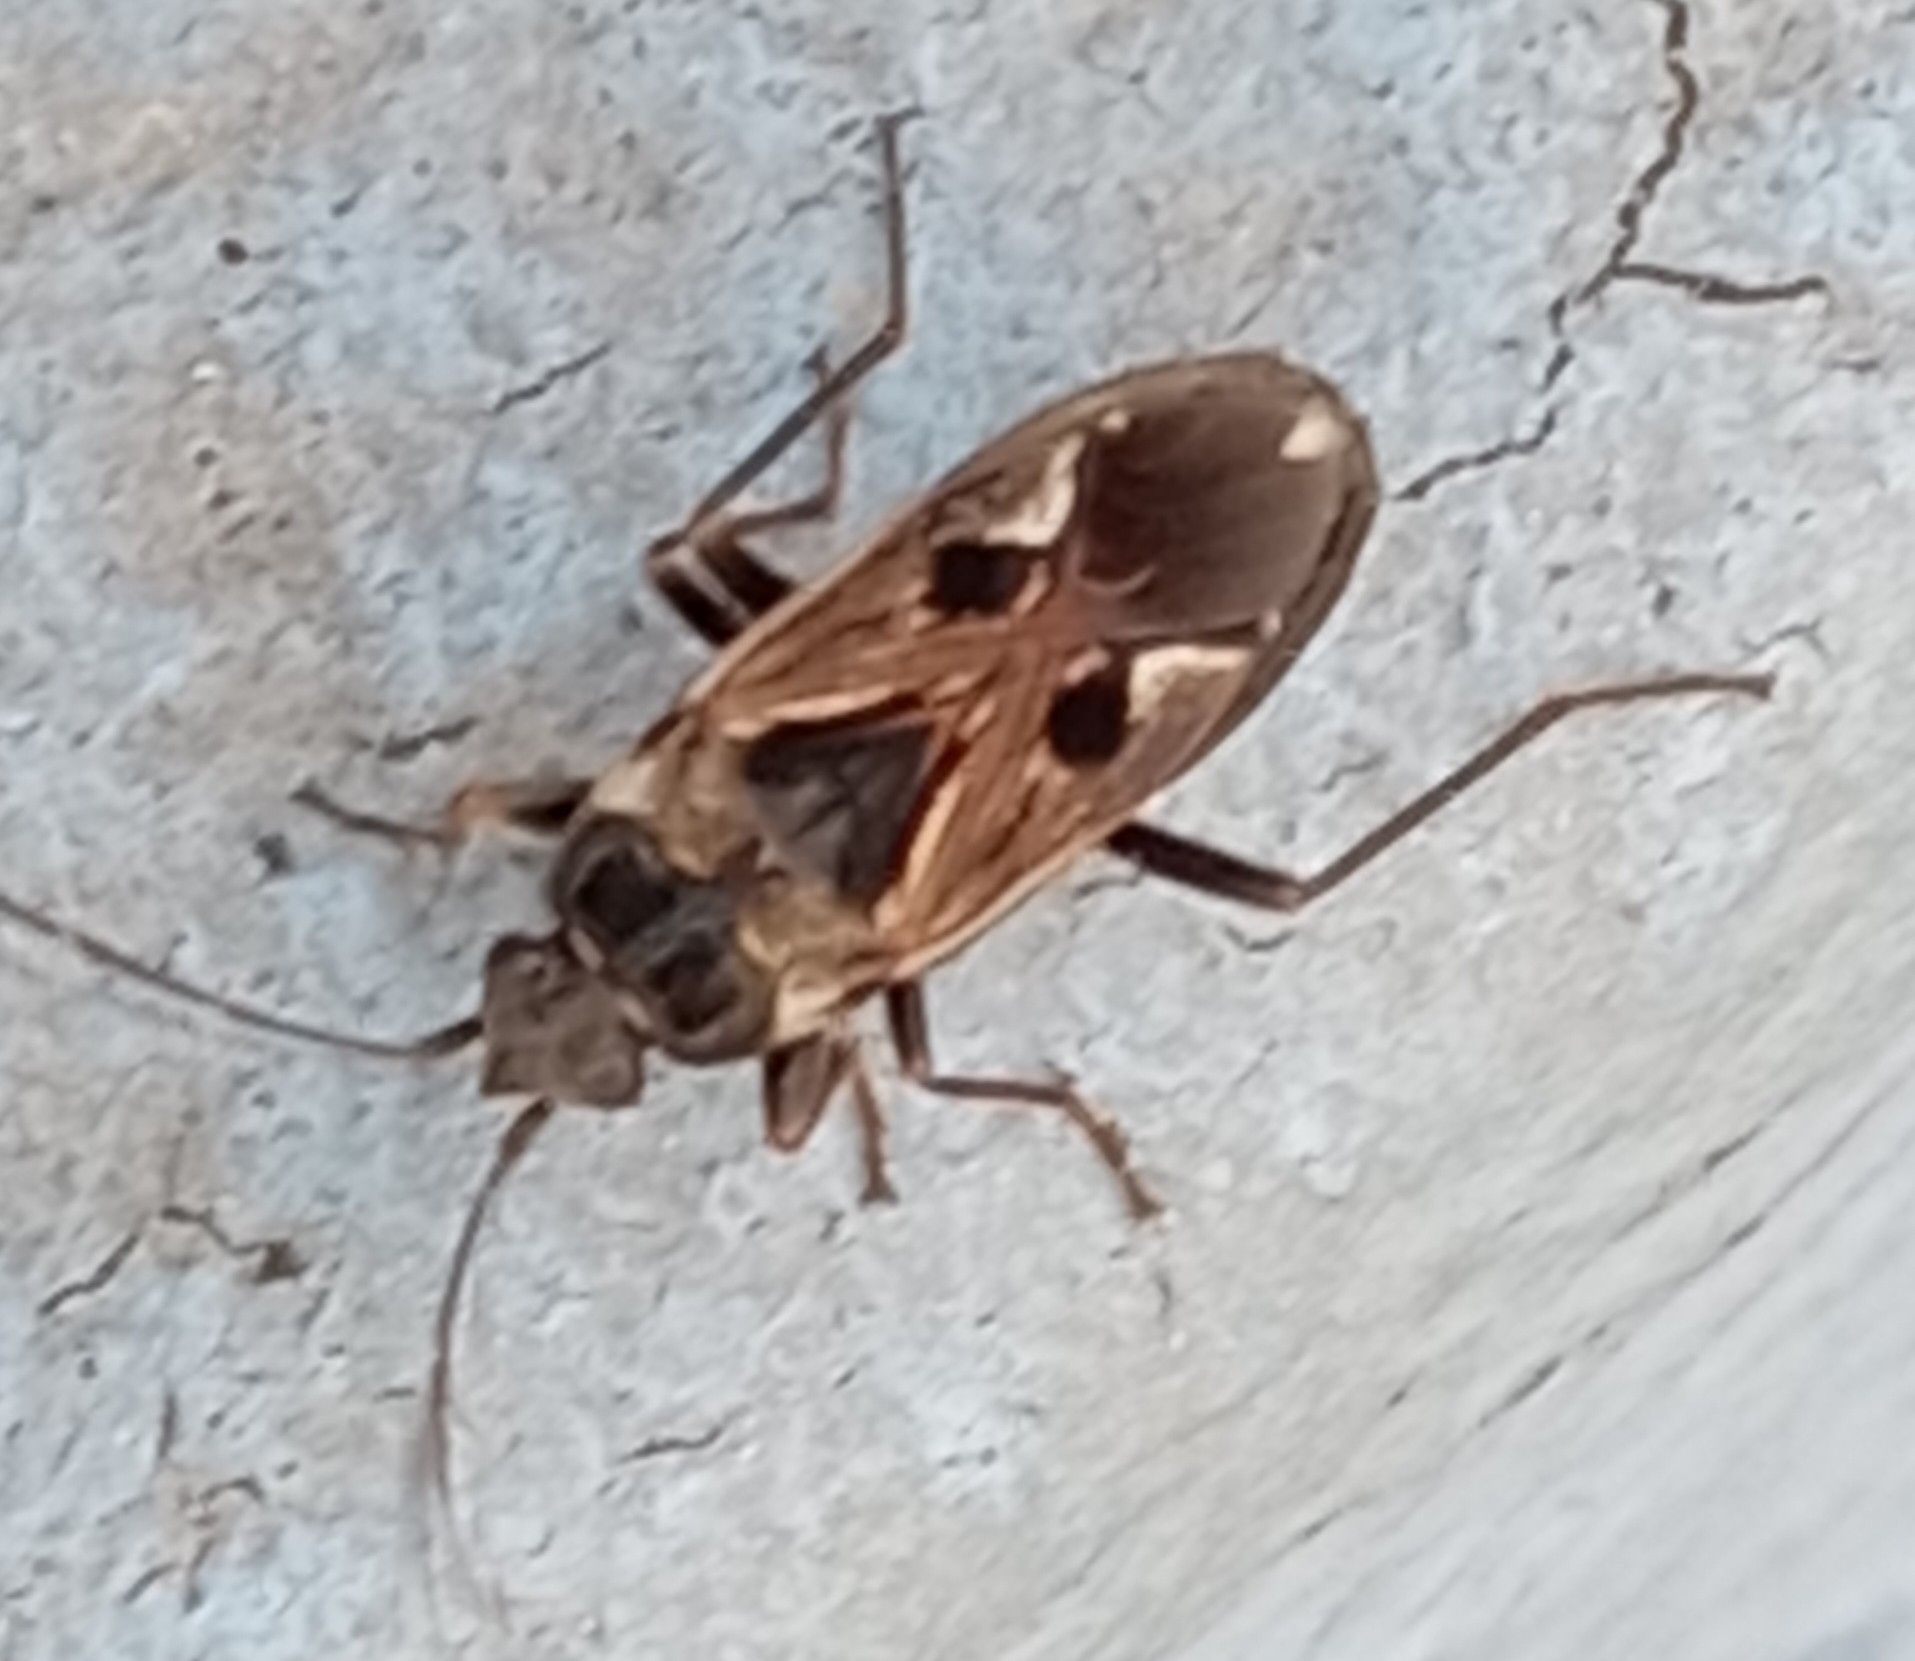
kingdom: Animalia
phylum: Arthropoda
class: Insecta
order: Hemiptera
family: Rhyparochromidae
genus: Rhyparochromus
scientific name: Rhyparochromus vulgaris
